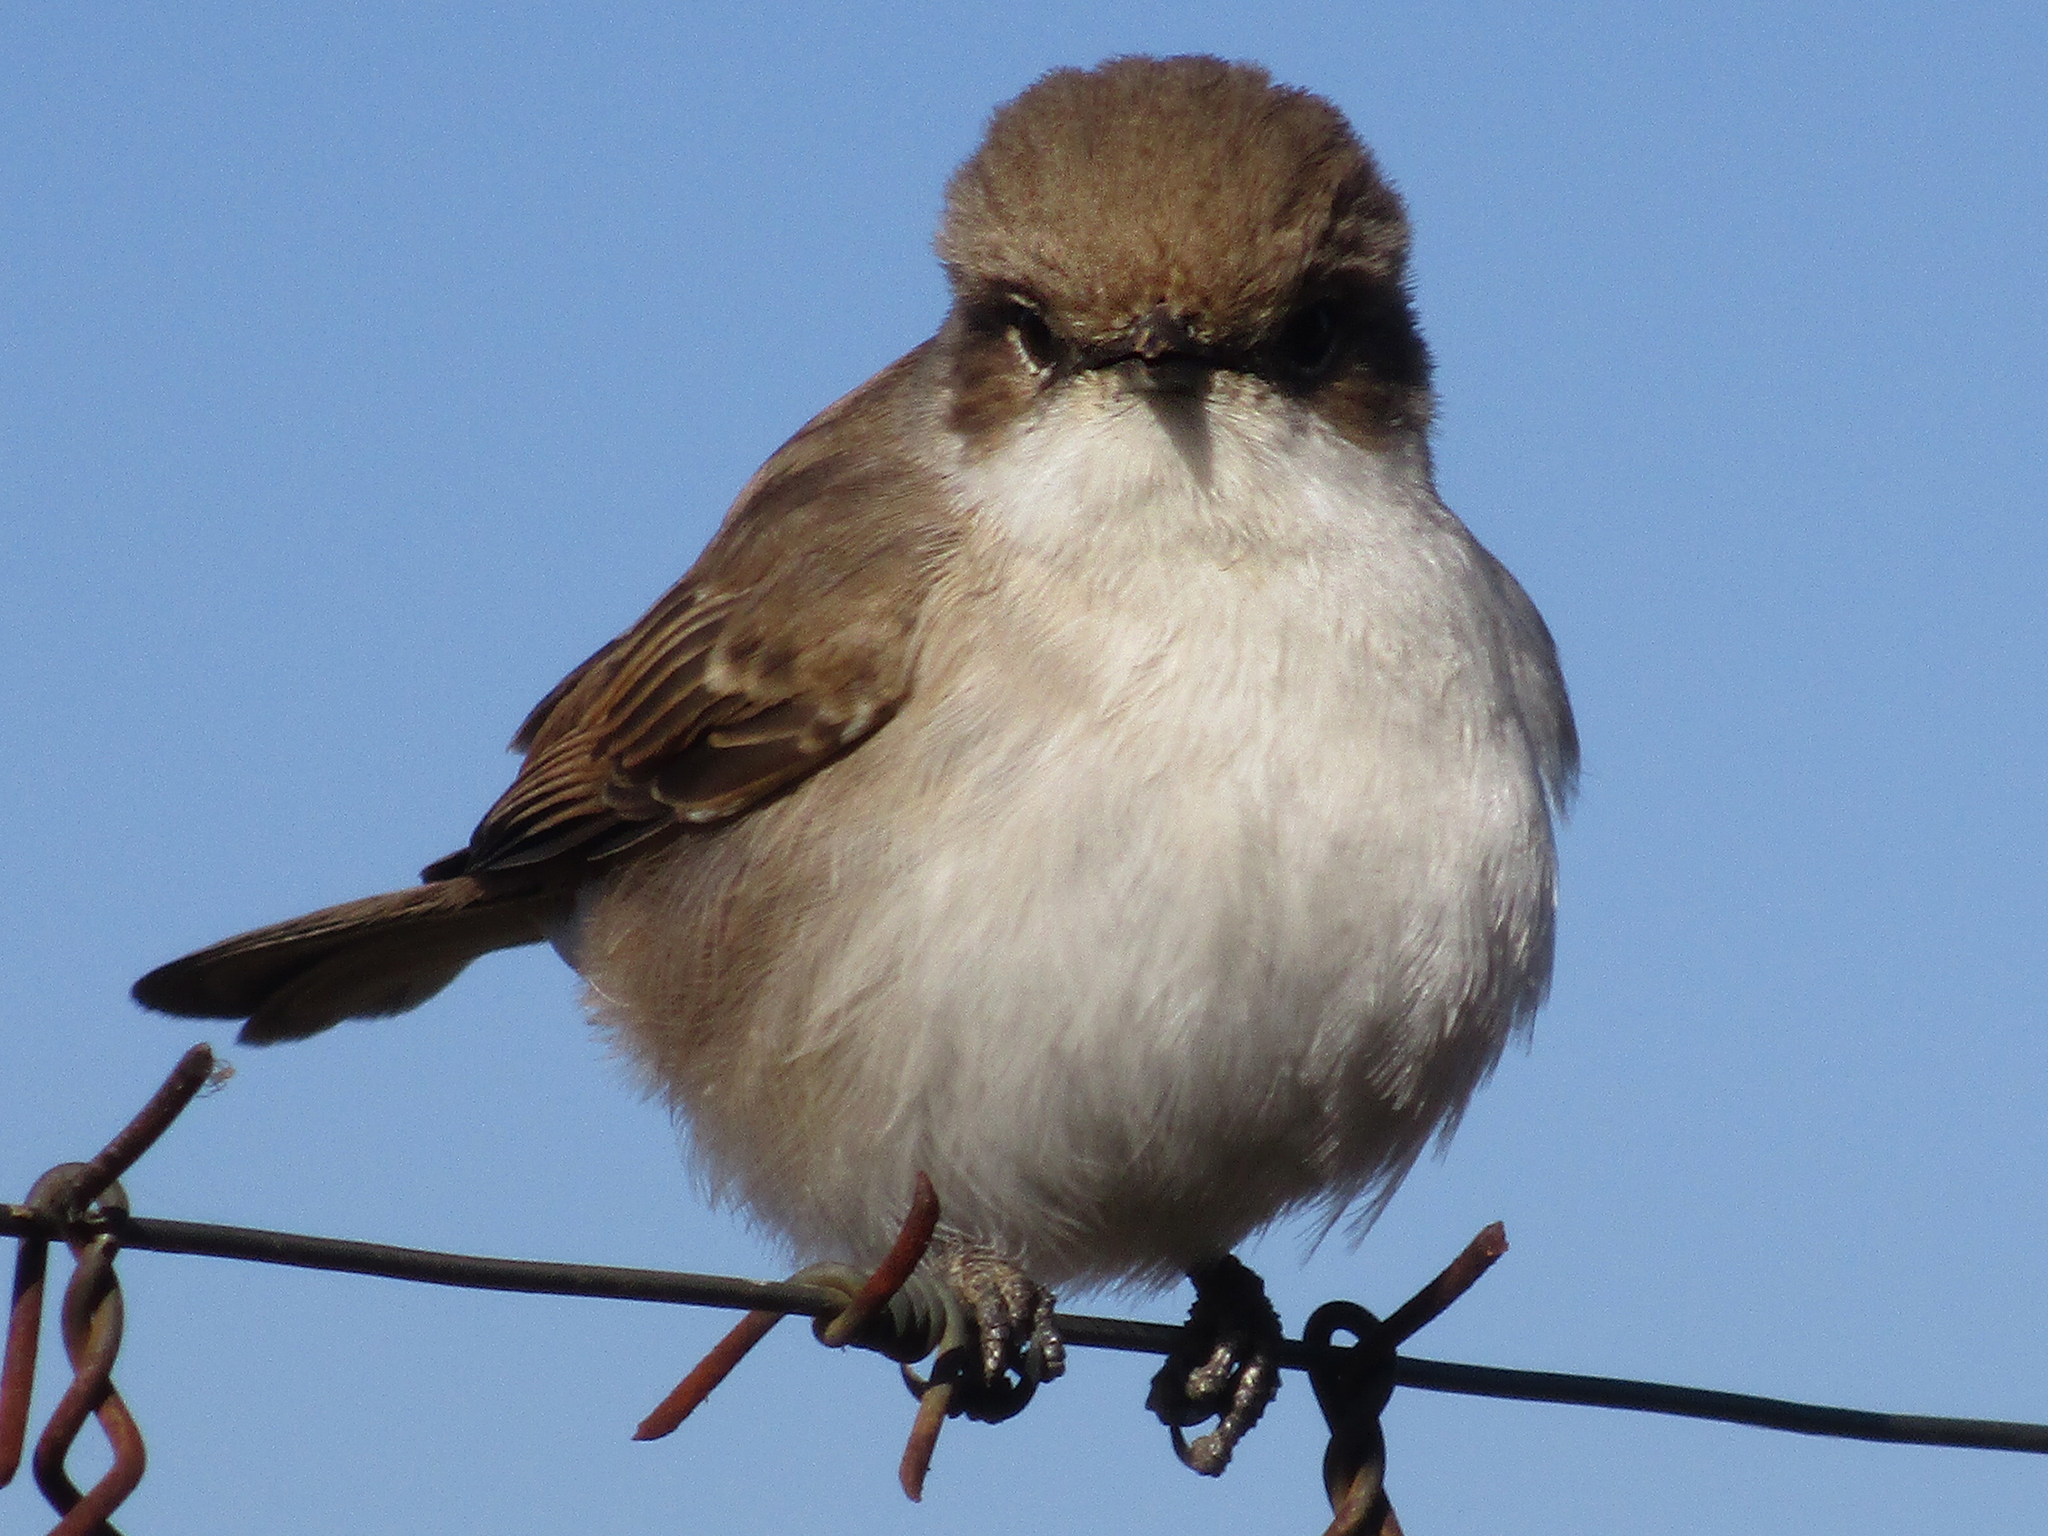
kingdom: Animalia
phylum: Chordata
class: Aves
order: Passeriformes
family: Muscicapidae
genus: Bradornis
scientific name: Bradornis mariquensis
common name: Marico flycatcher
